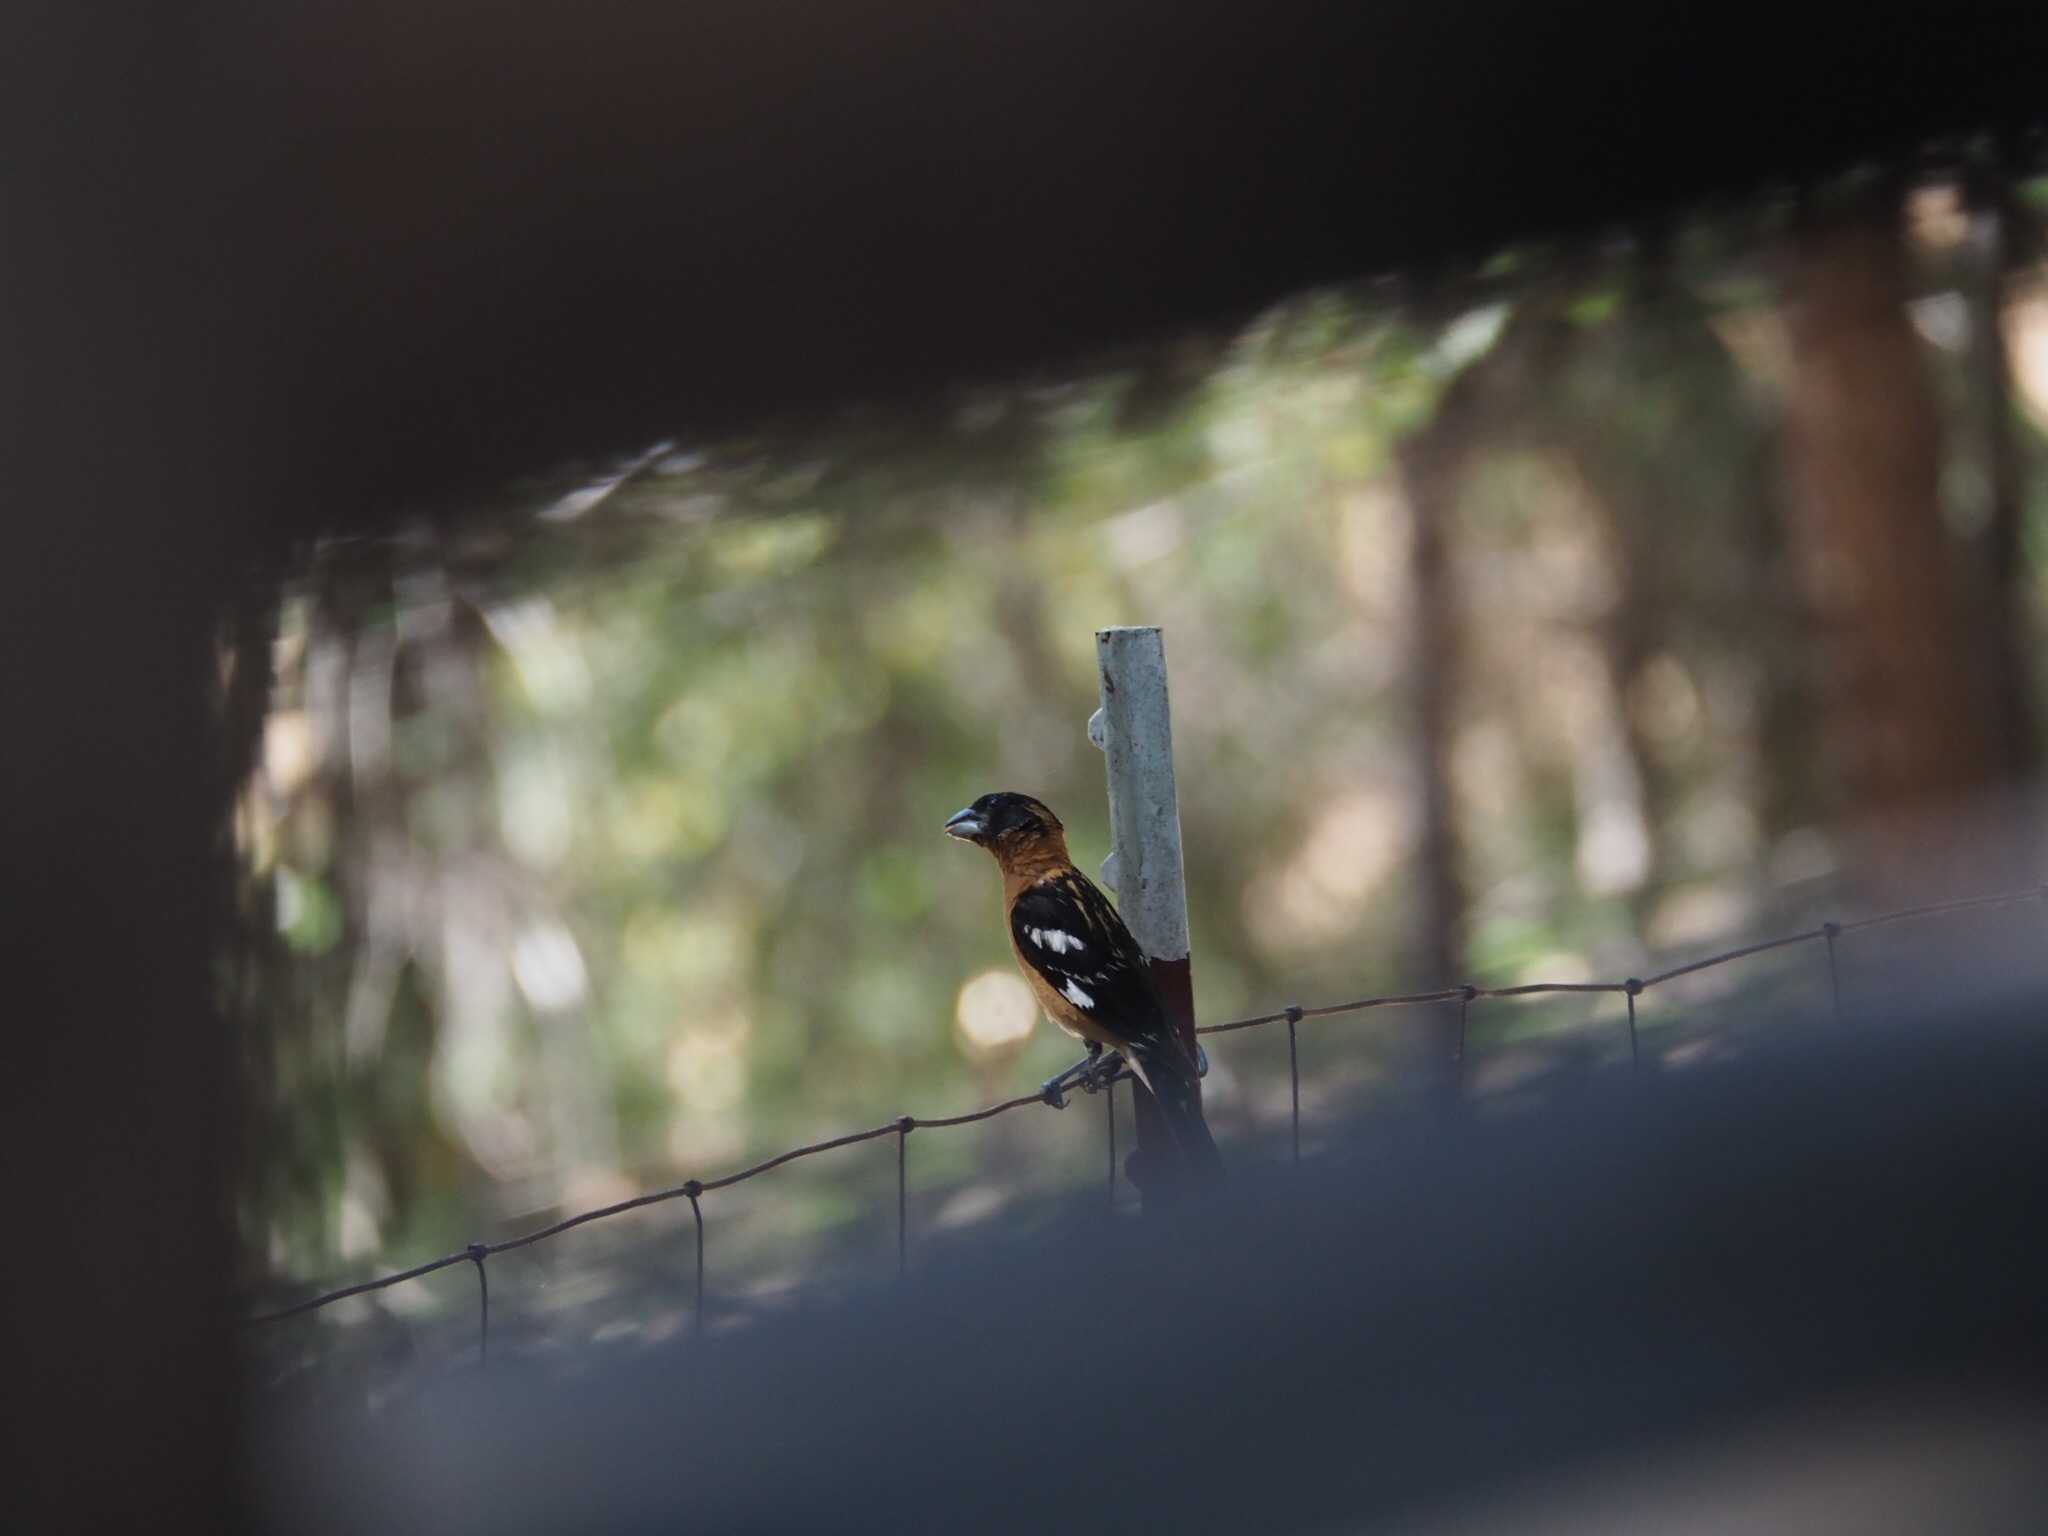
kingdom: Animalia
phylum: Chordata
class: Aves
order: Passeriformes
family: Cardinalidae
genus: Pheucticus
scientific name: Pheucticus melanocephalus
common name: Black-headed grosbeak
